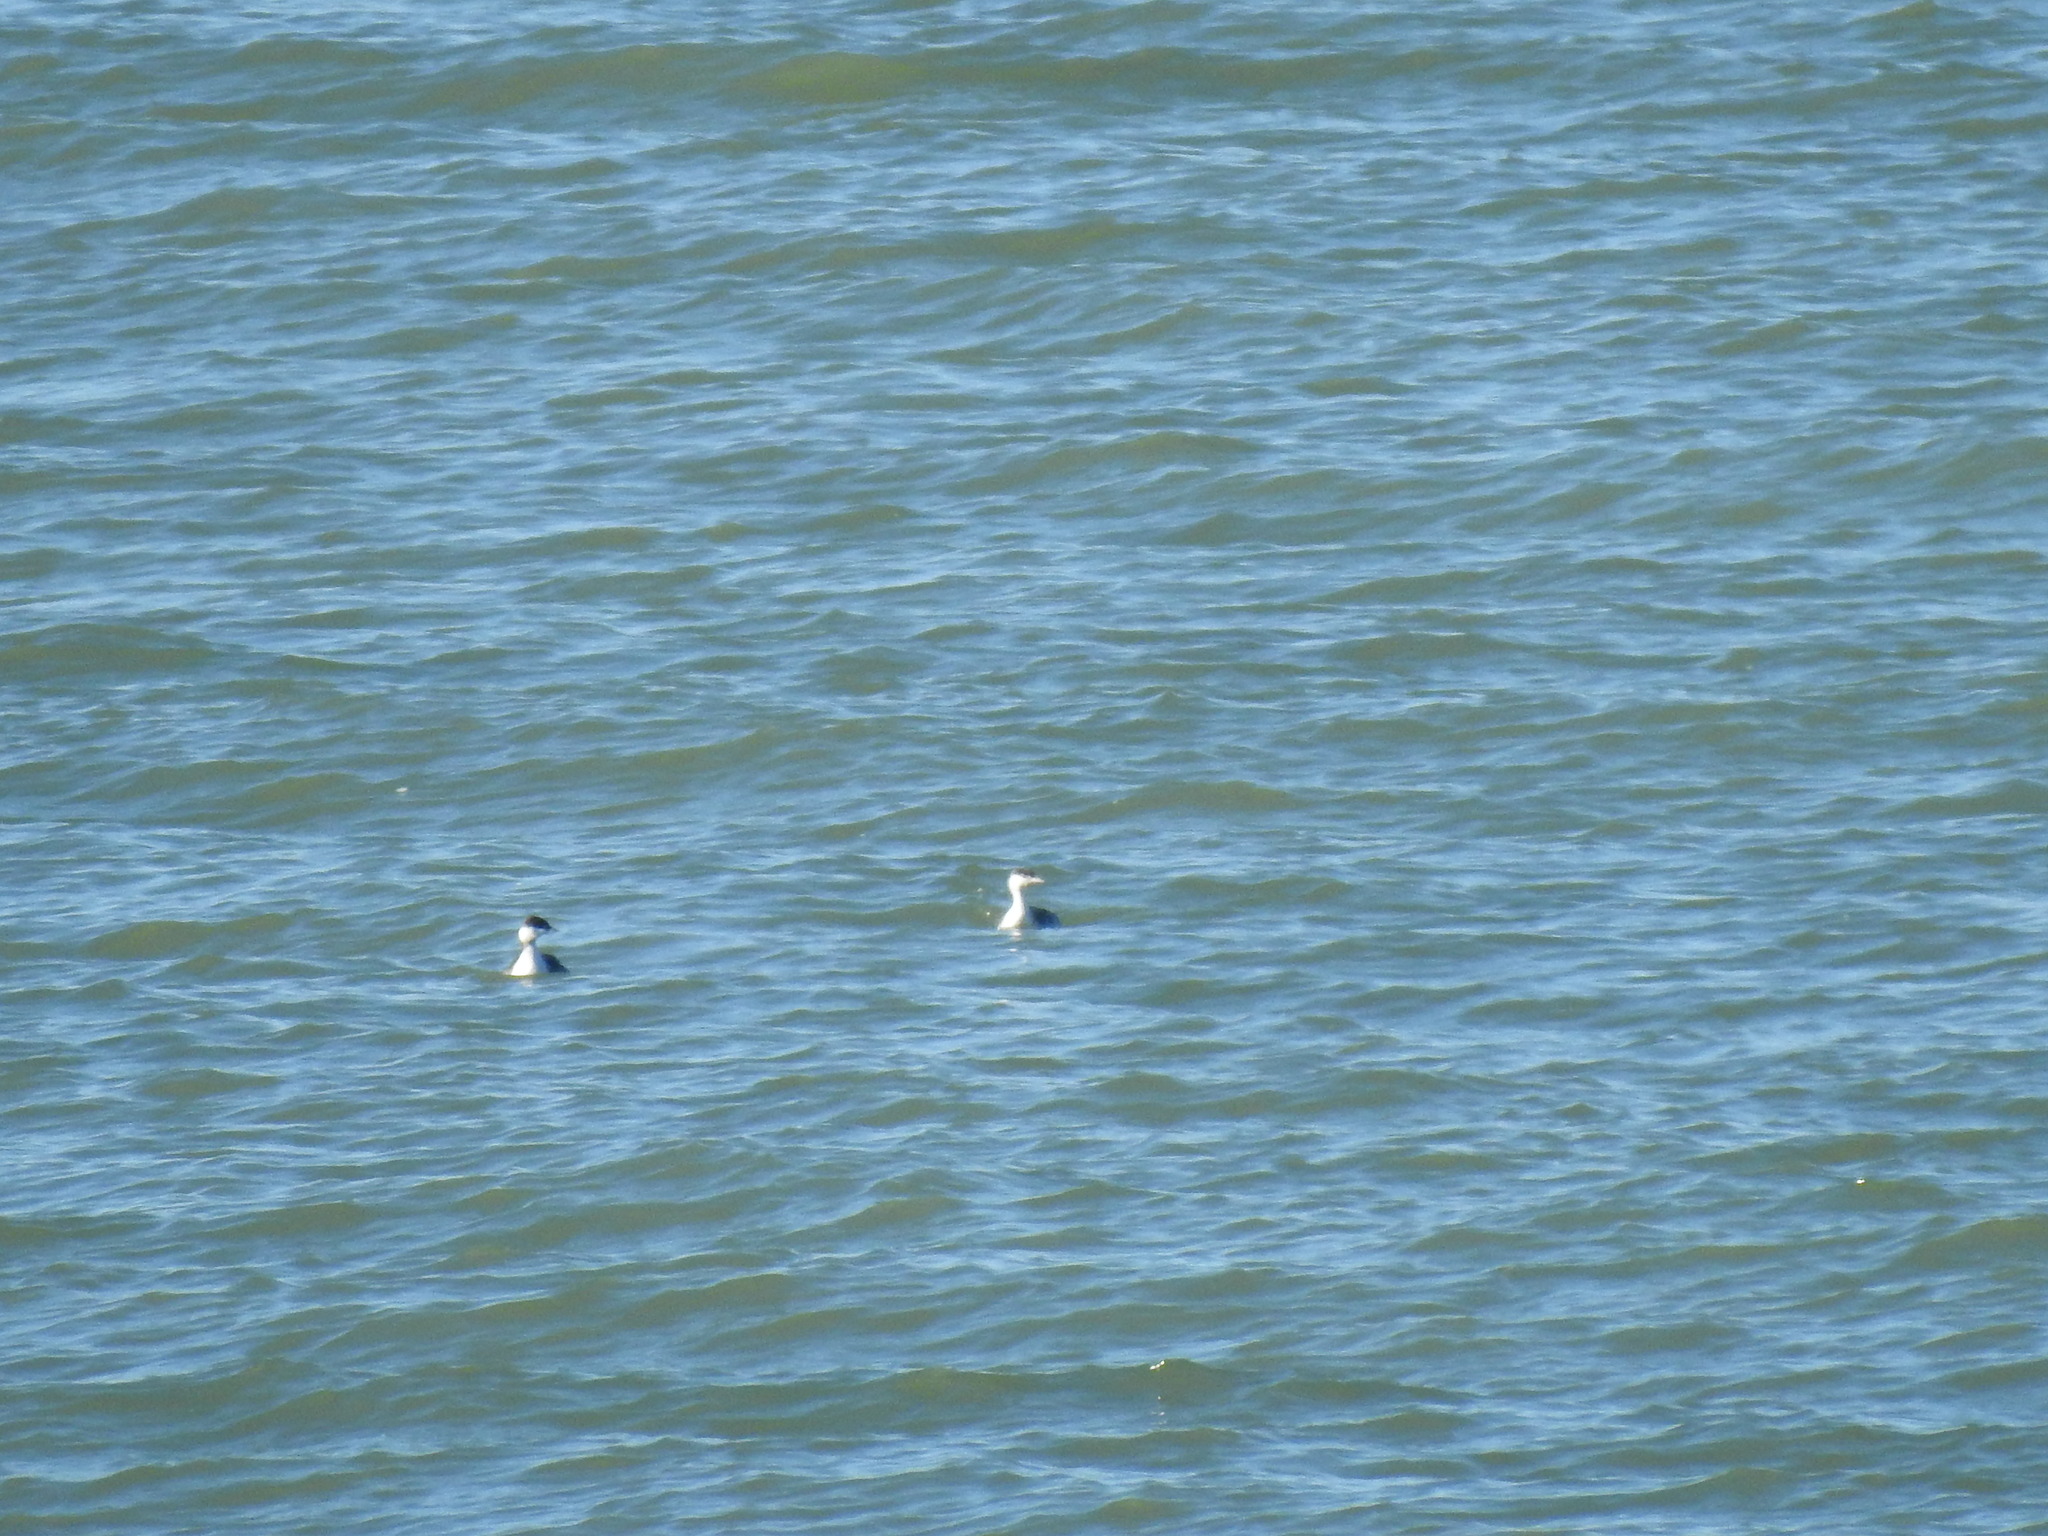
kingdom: Animalia
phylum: Chordata
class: Aves
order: Podicipediformes
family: Podicipedidae
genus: Podiceps
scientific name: Podiceps auritus
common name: Horned grebe
